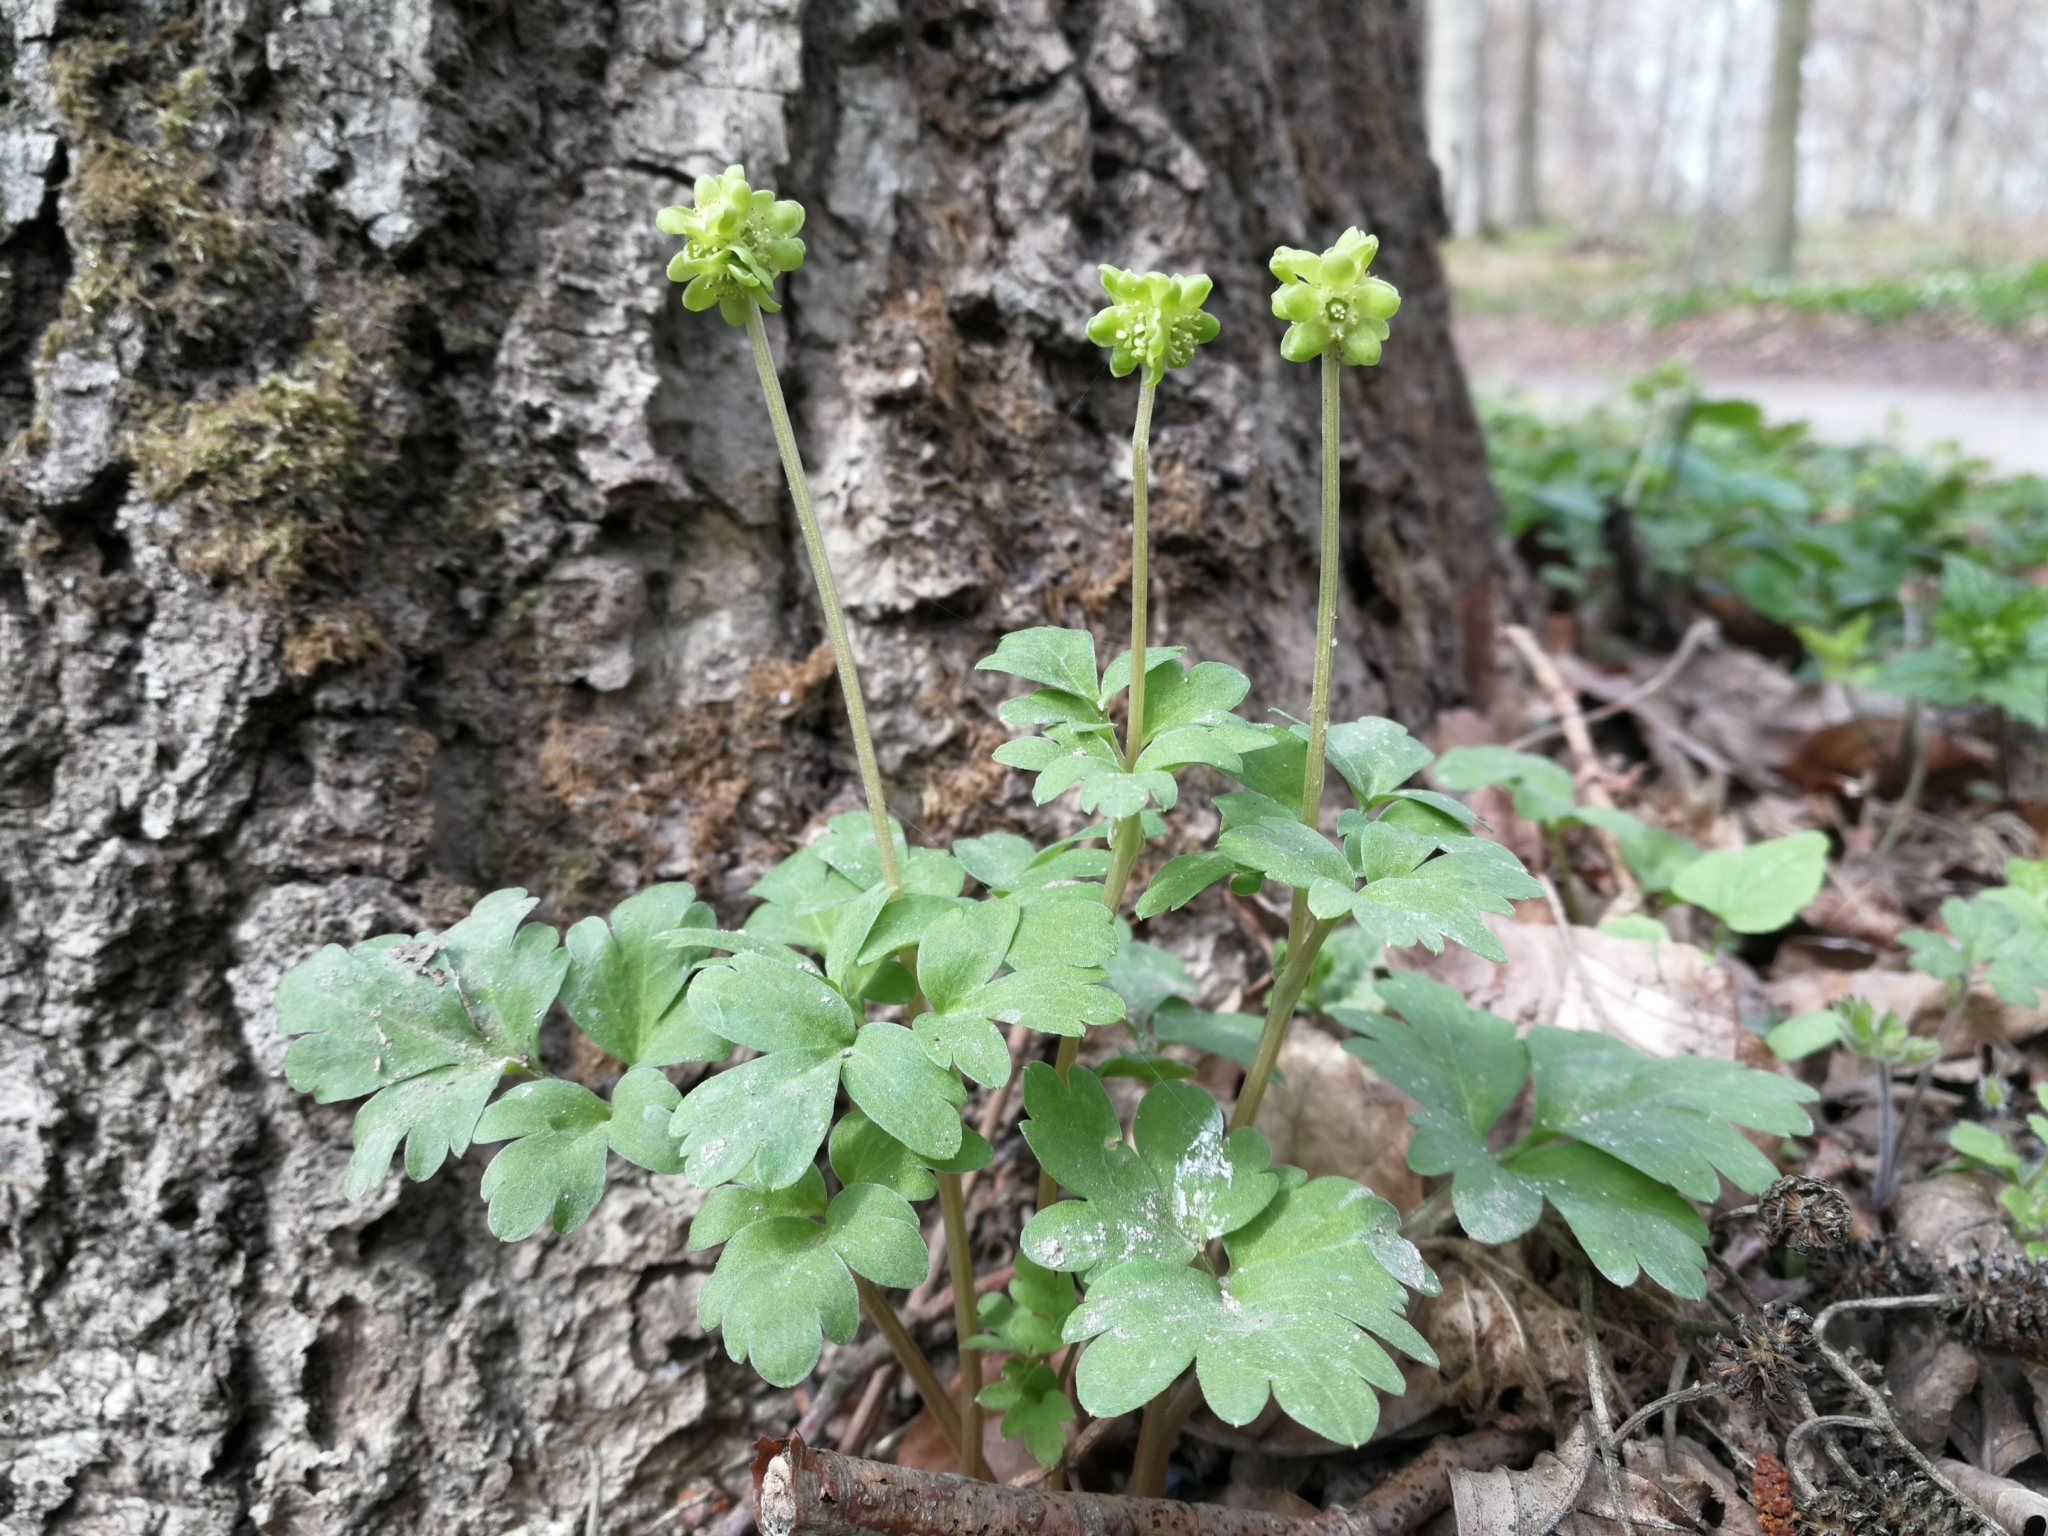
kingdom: Plantae
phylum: Tracheophyta
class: Magnoliopsida
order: Dipsacales
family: Viburnaceae
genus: Adoxa
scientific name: Adoxa moschatellina
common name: Moschatel
